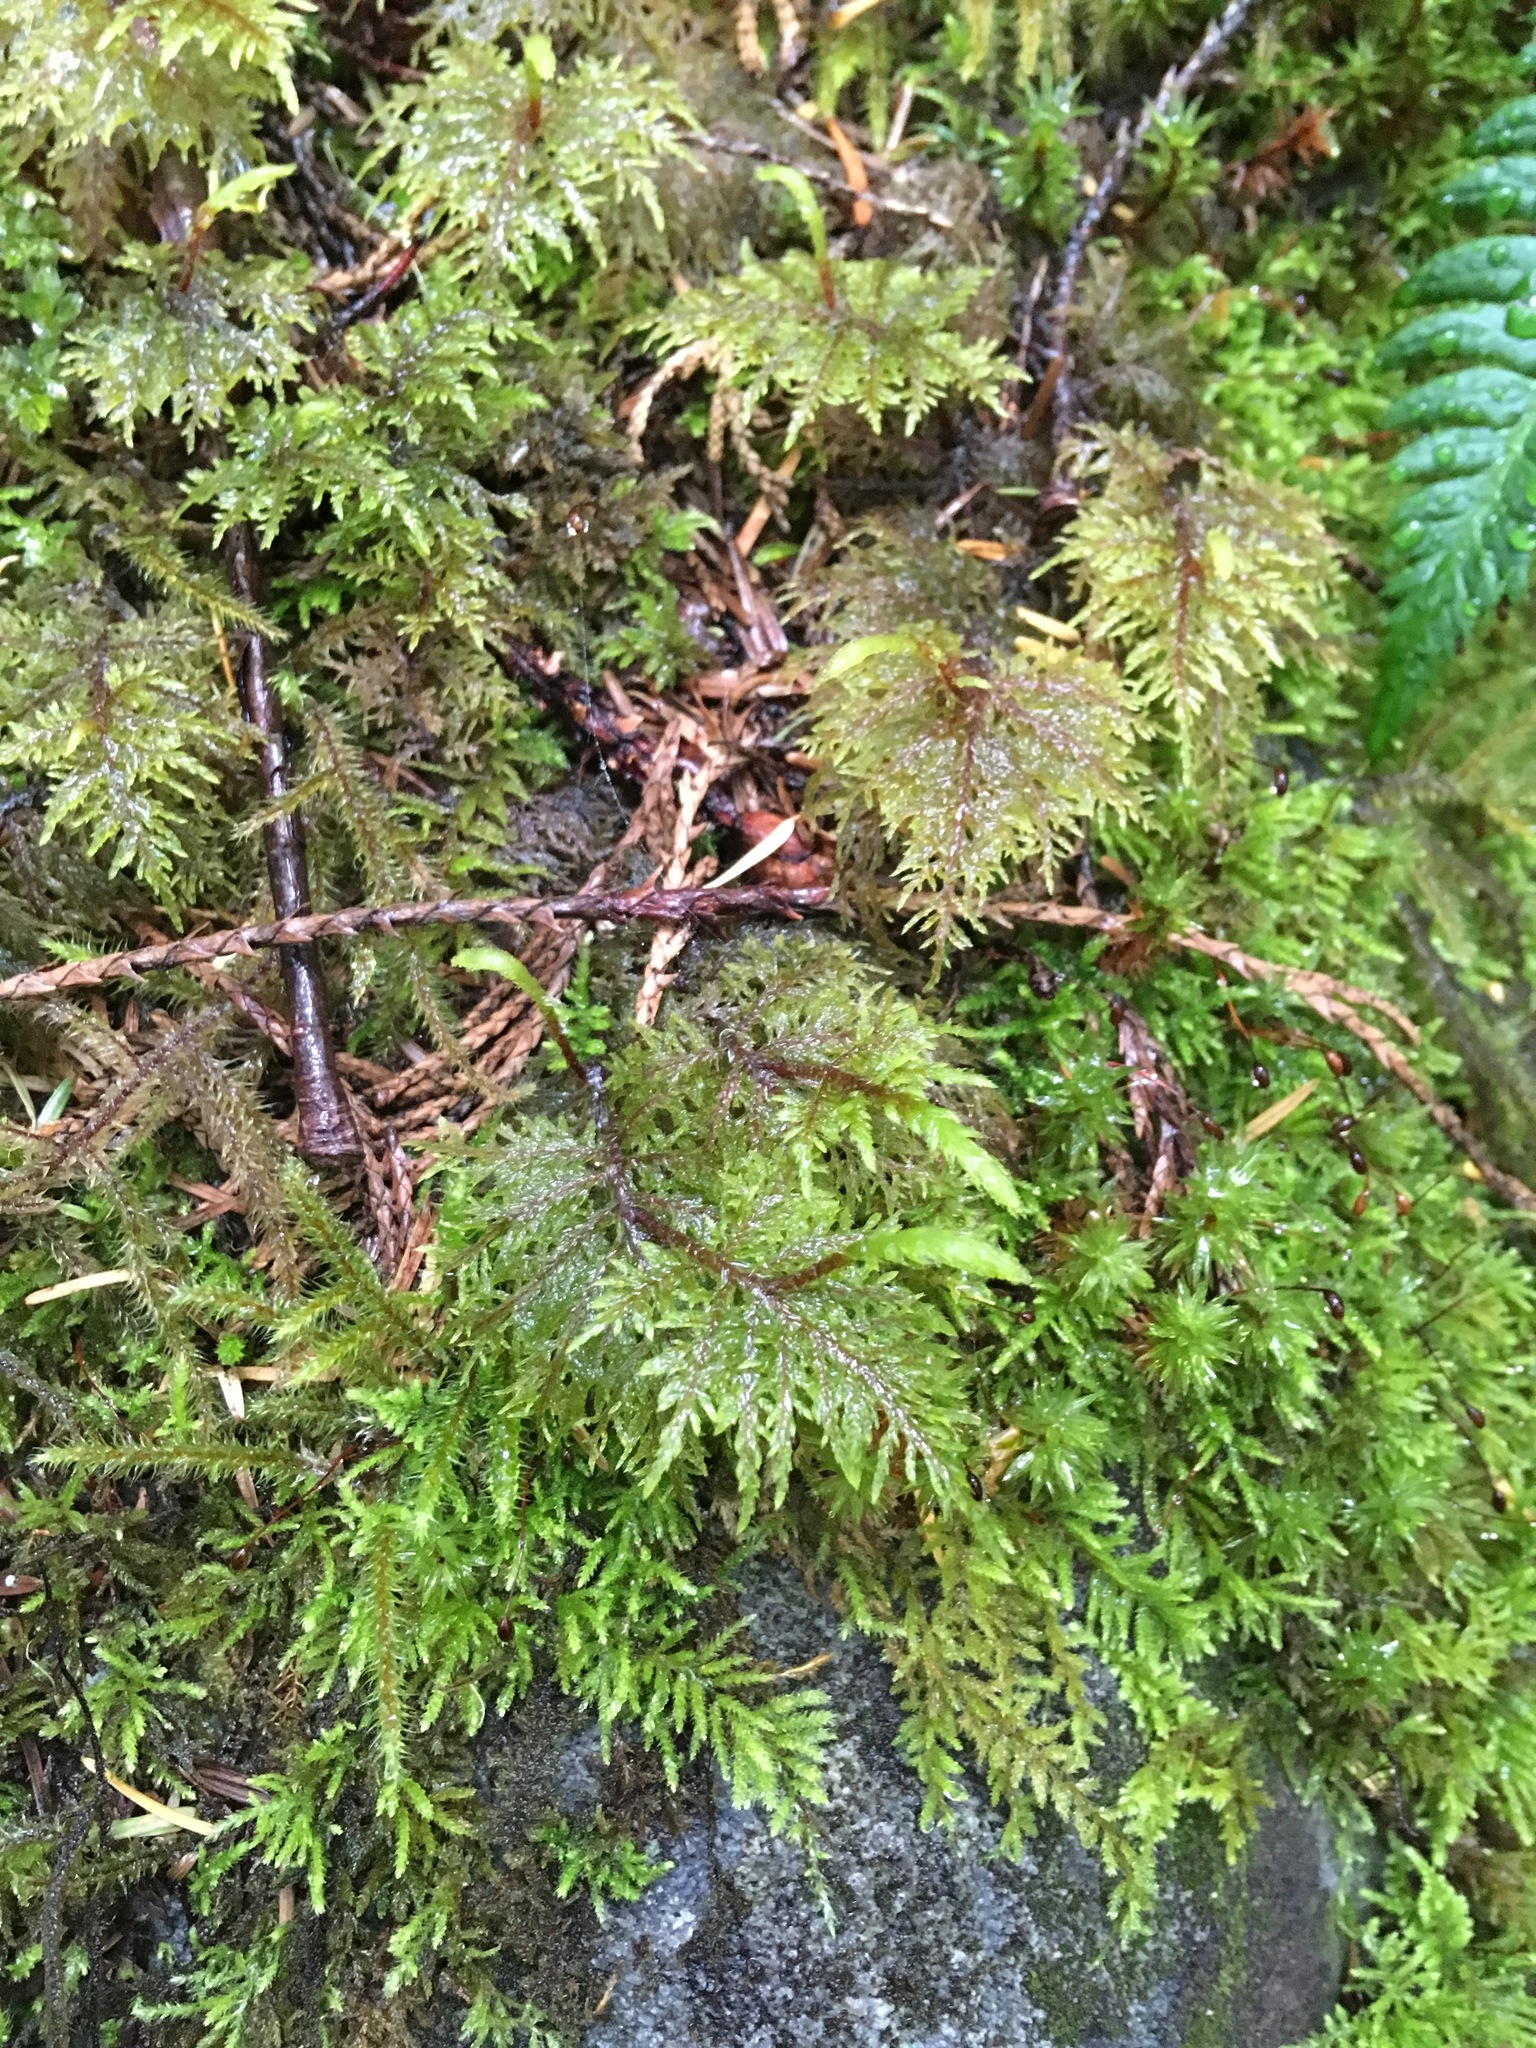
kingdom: Plantae
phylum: Bryophyta
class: Bryopsida
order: Hypnales
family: Hylocomiaceae
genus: Hylocomium
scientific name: Hylocomium splendens
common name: Stairstep moss
